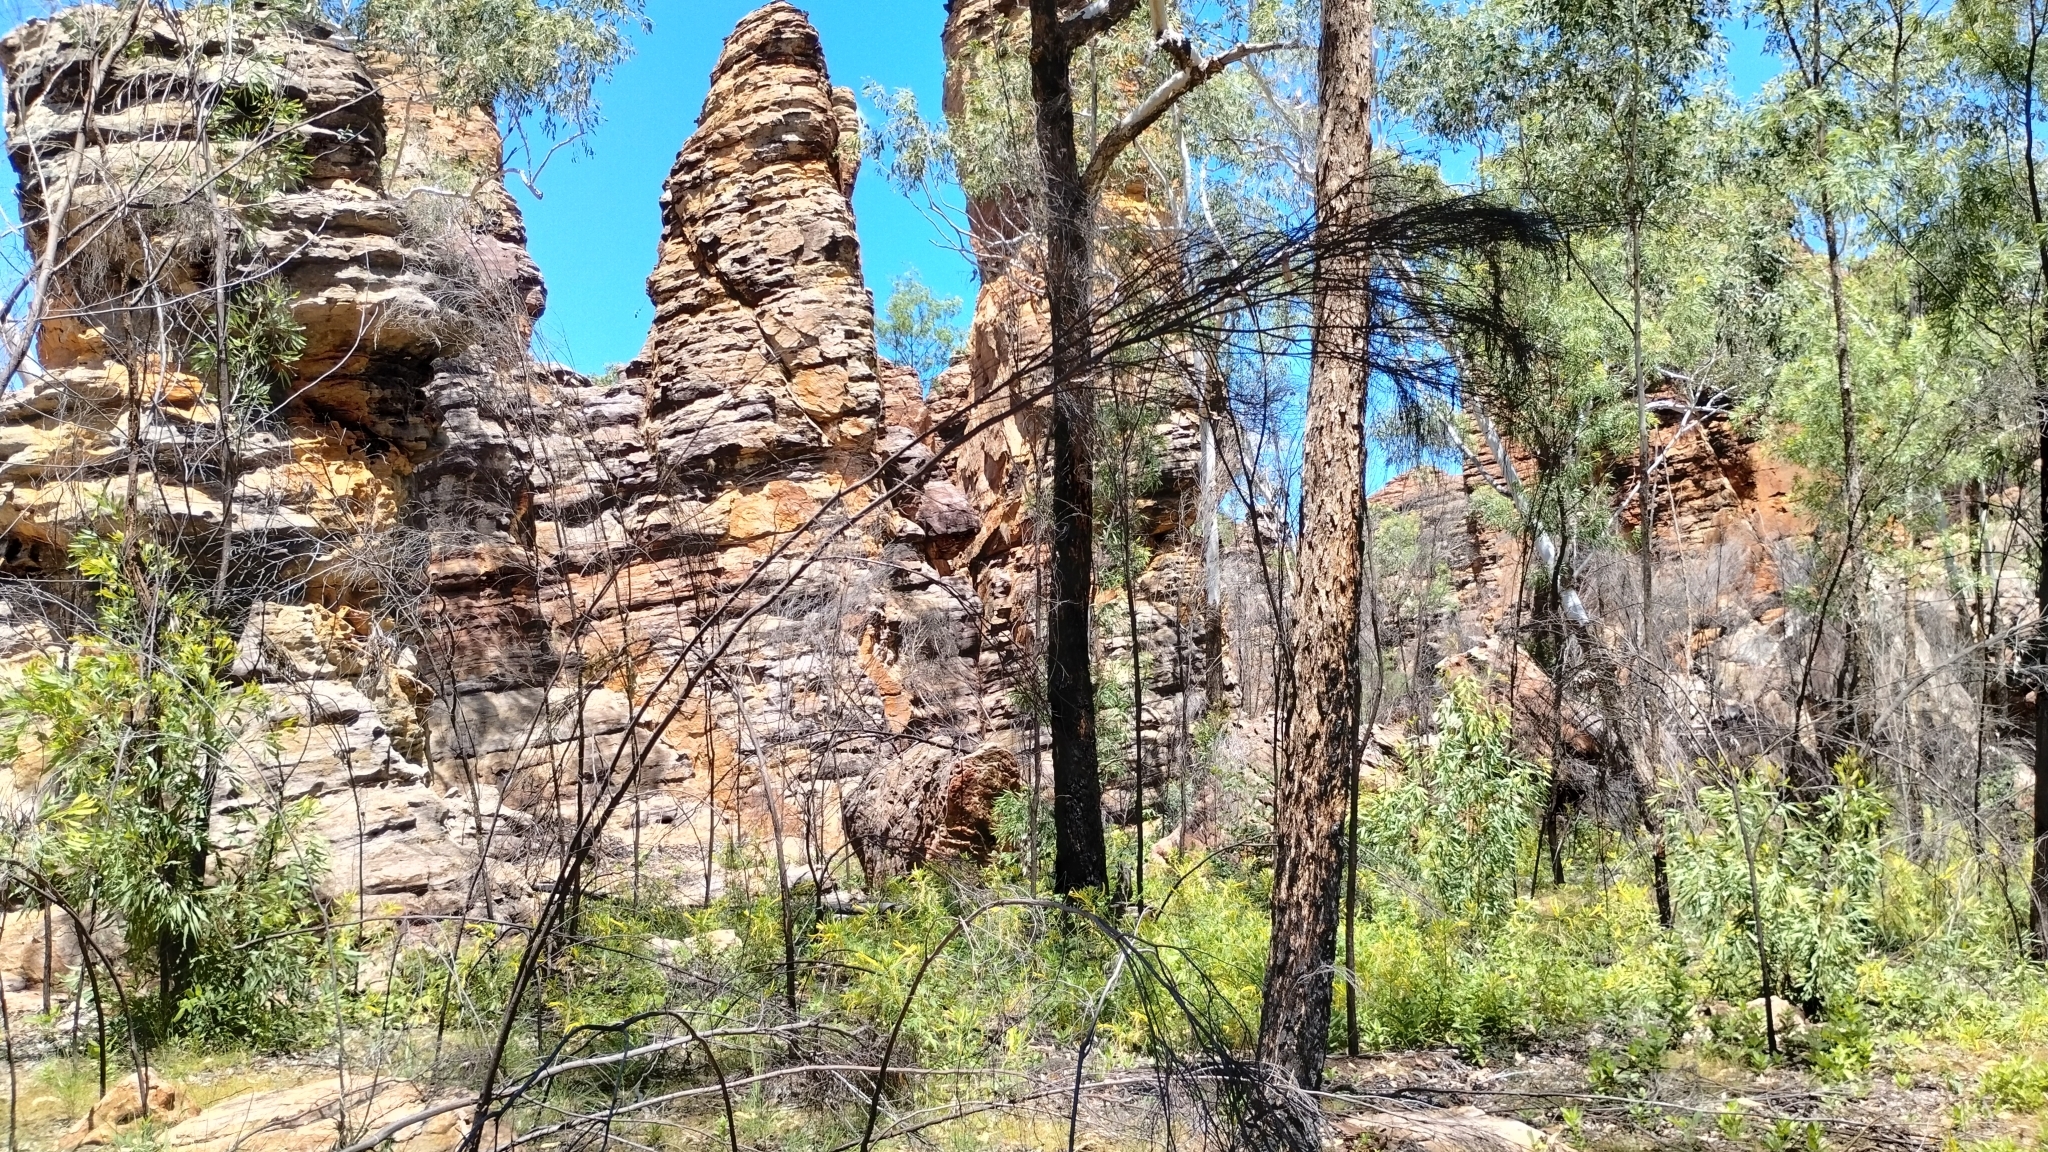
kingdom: Plantae
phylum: Tracheophyta
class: Magnoliopsida
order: Brassicales
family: Cleomaceae
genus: Arivela
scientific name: Arivela cleomoides
